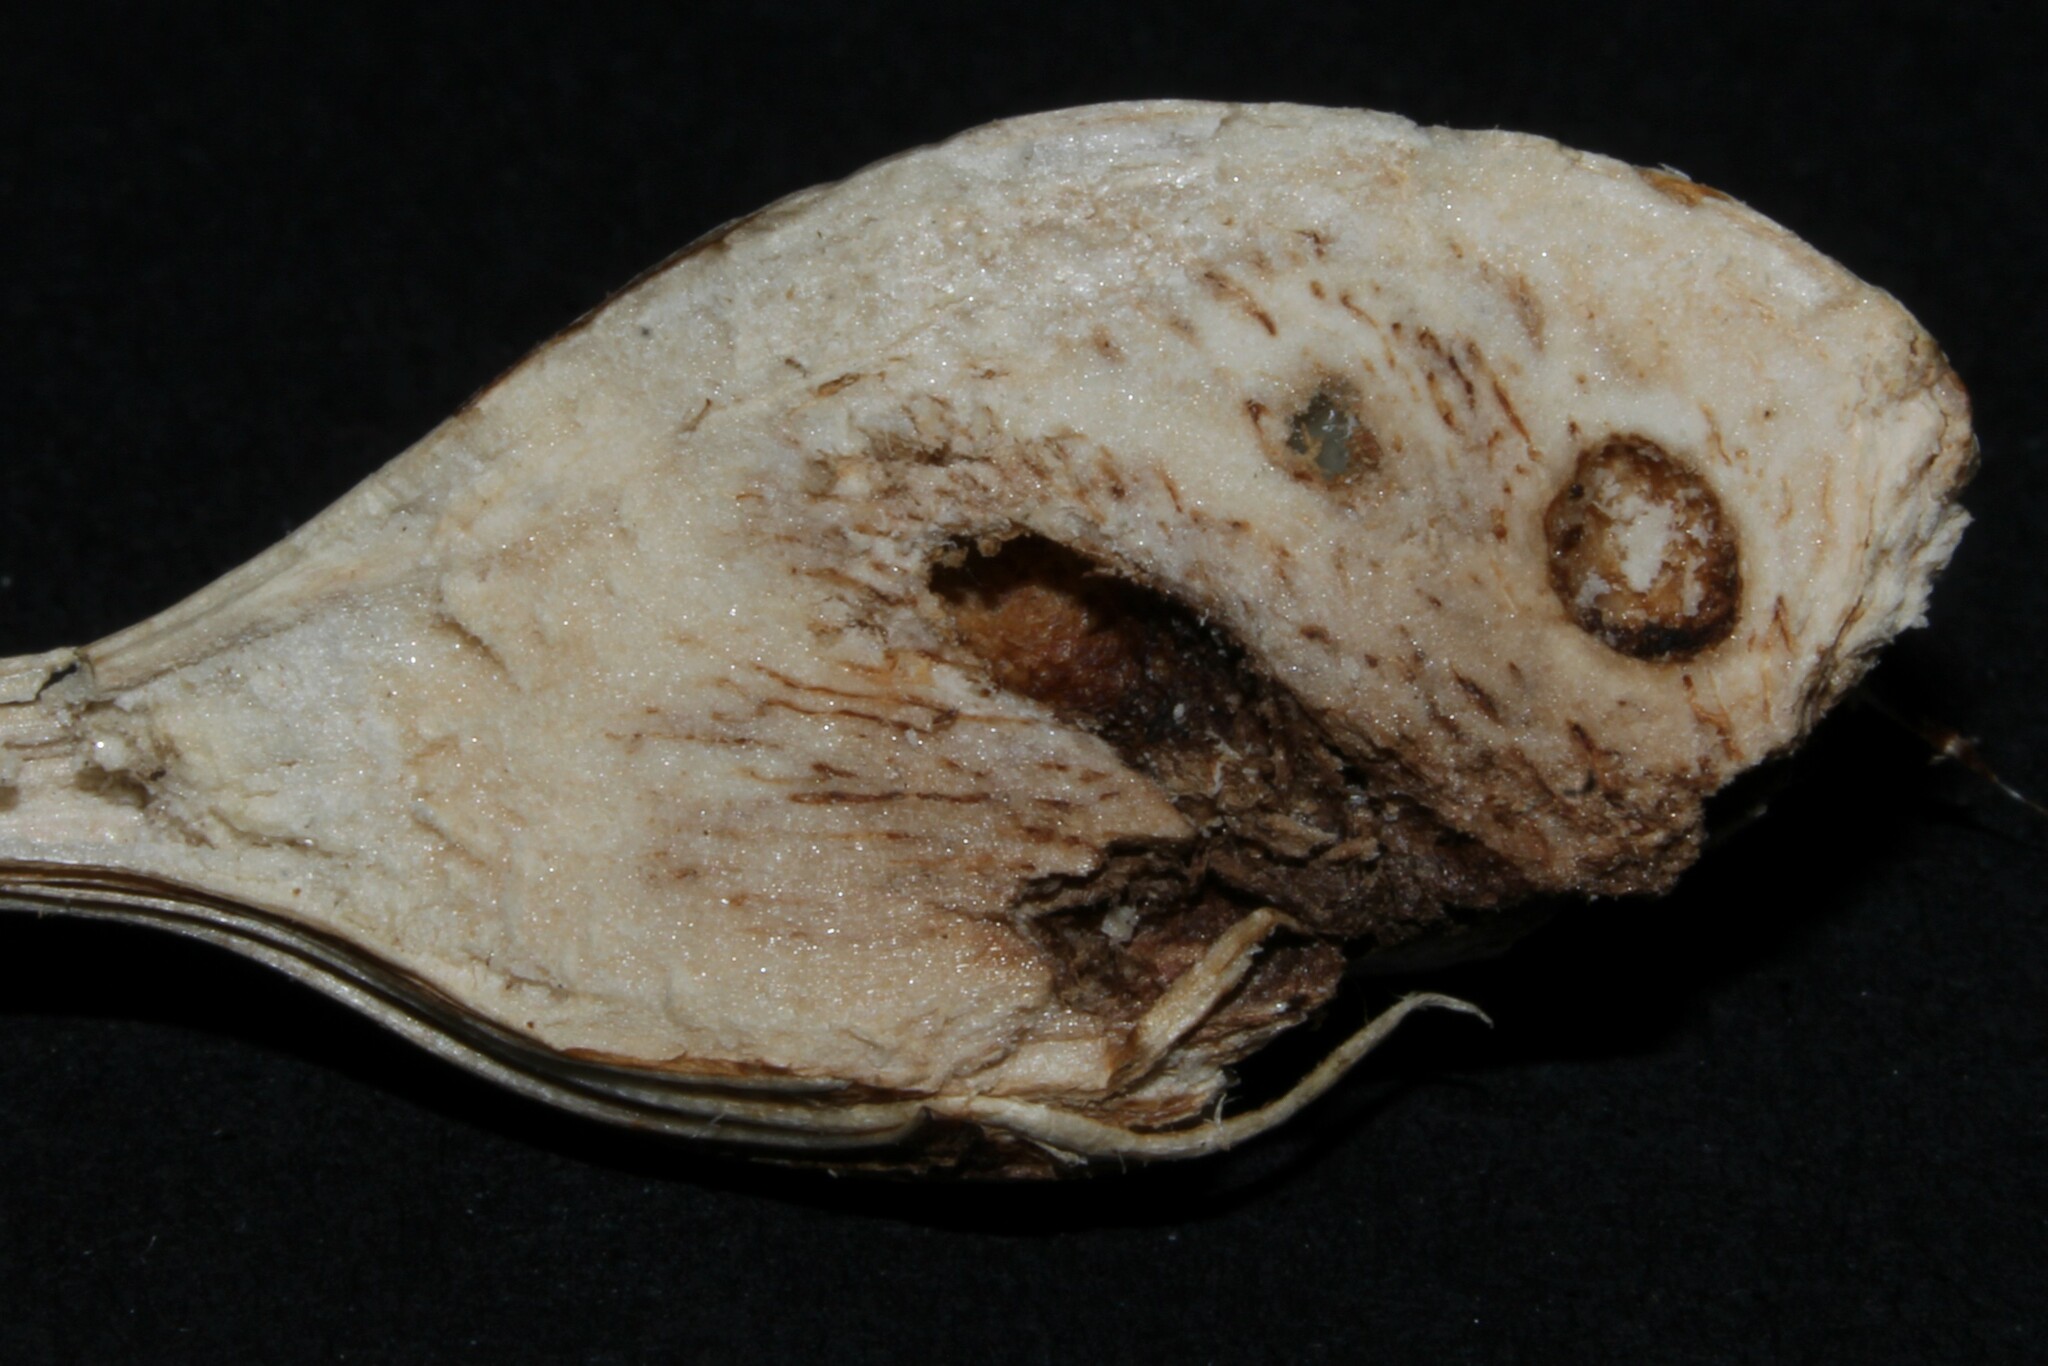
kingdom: Animalia
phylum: Arthropoda
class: Insecta
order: Diptera
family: Tephritidae
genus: Urophora
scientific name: Urophora cardui
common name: Fruit fly
